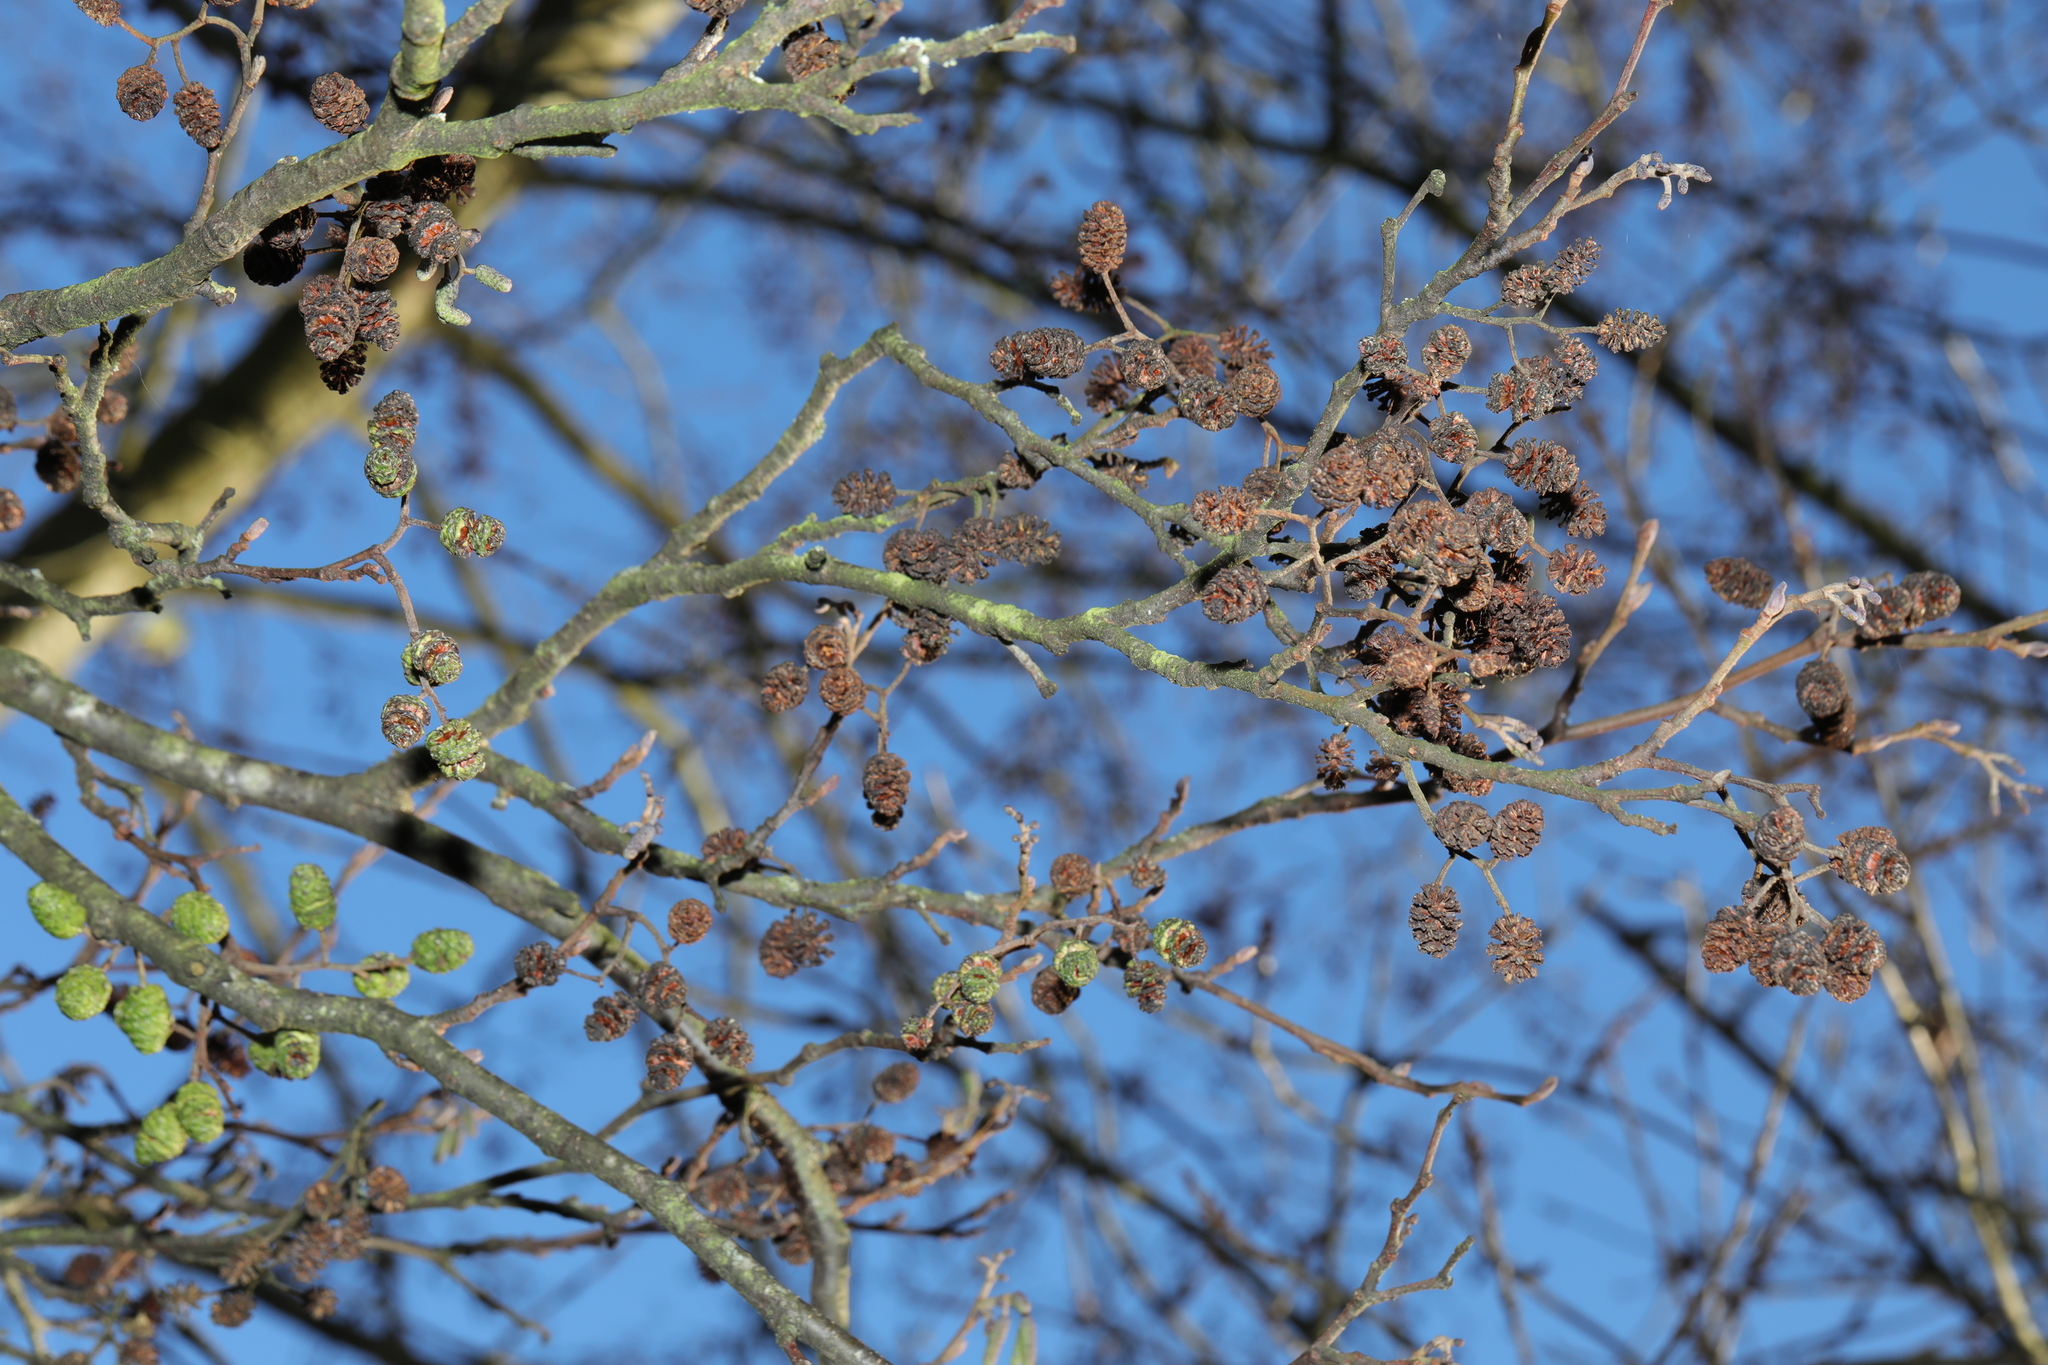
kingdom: Plantae
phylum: Tracheophyta
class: Magnoliopsida
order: Fagales
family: Betulaceae
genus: Alnus
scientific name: Alnus glutinosa
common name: Black alder
